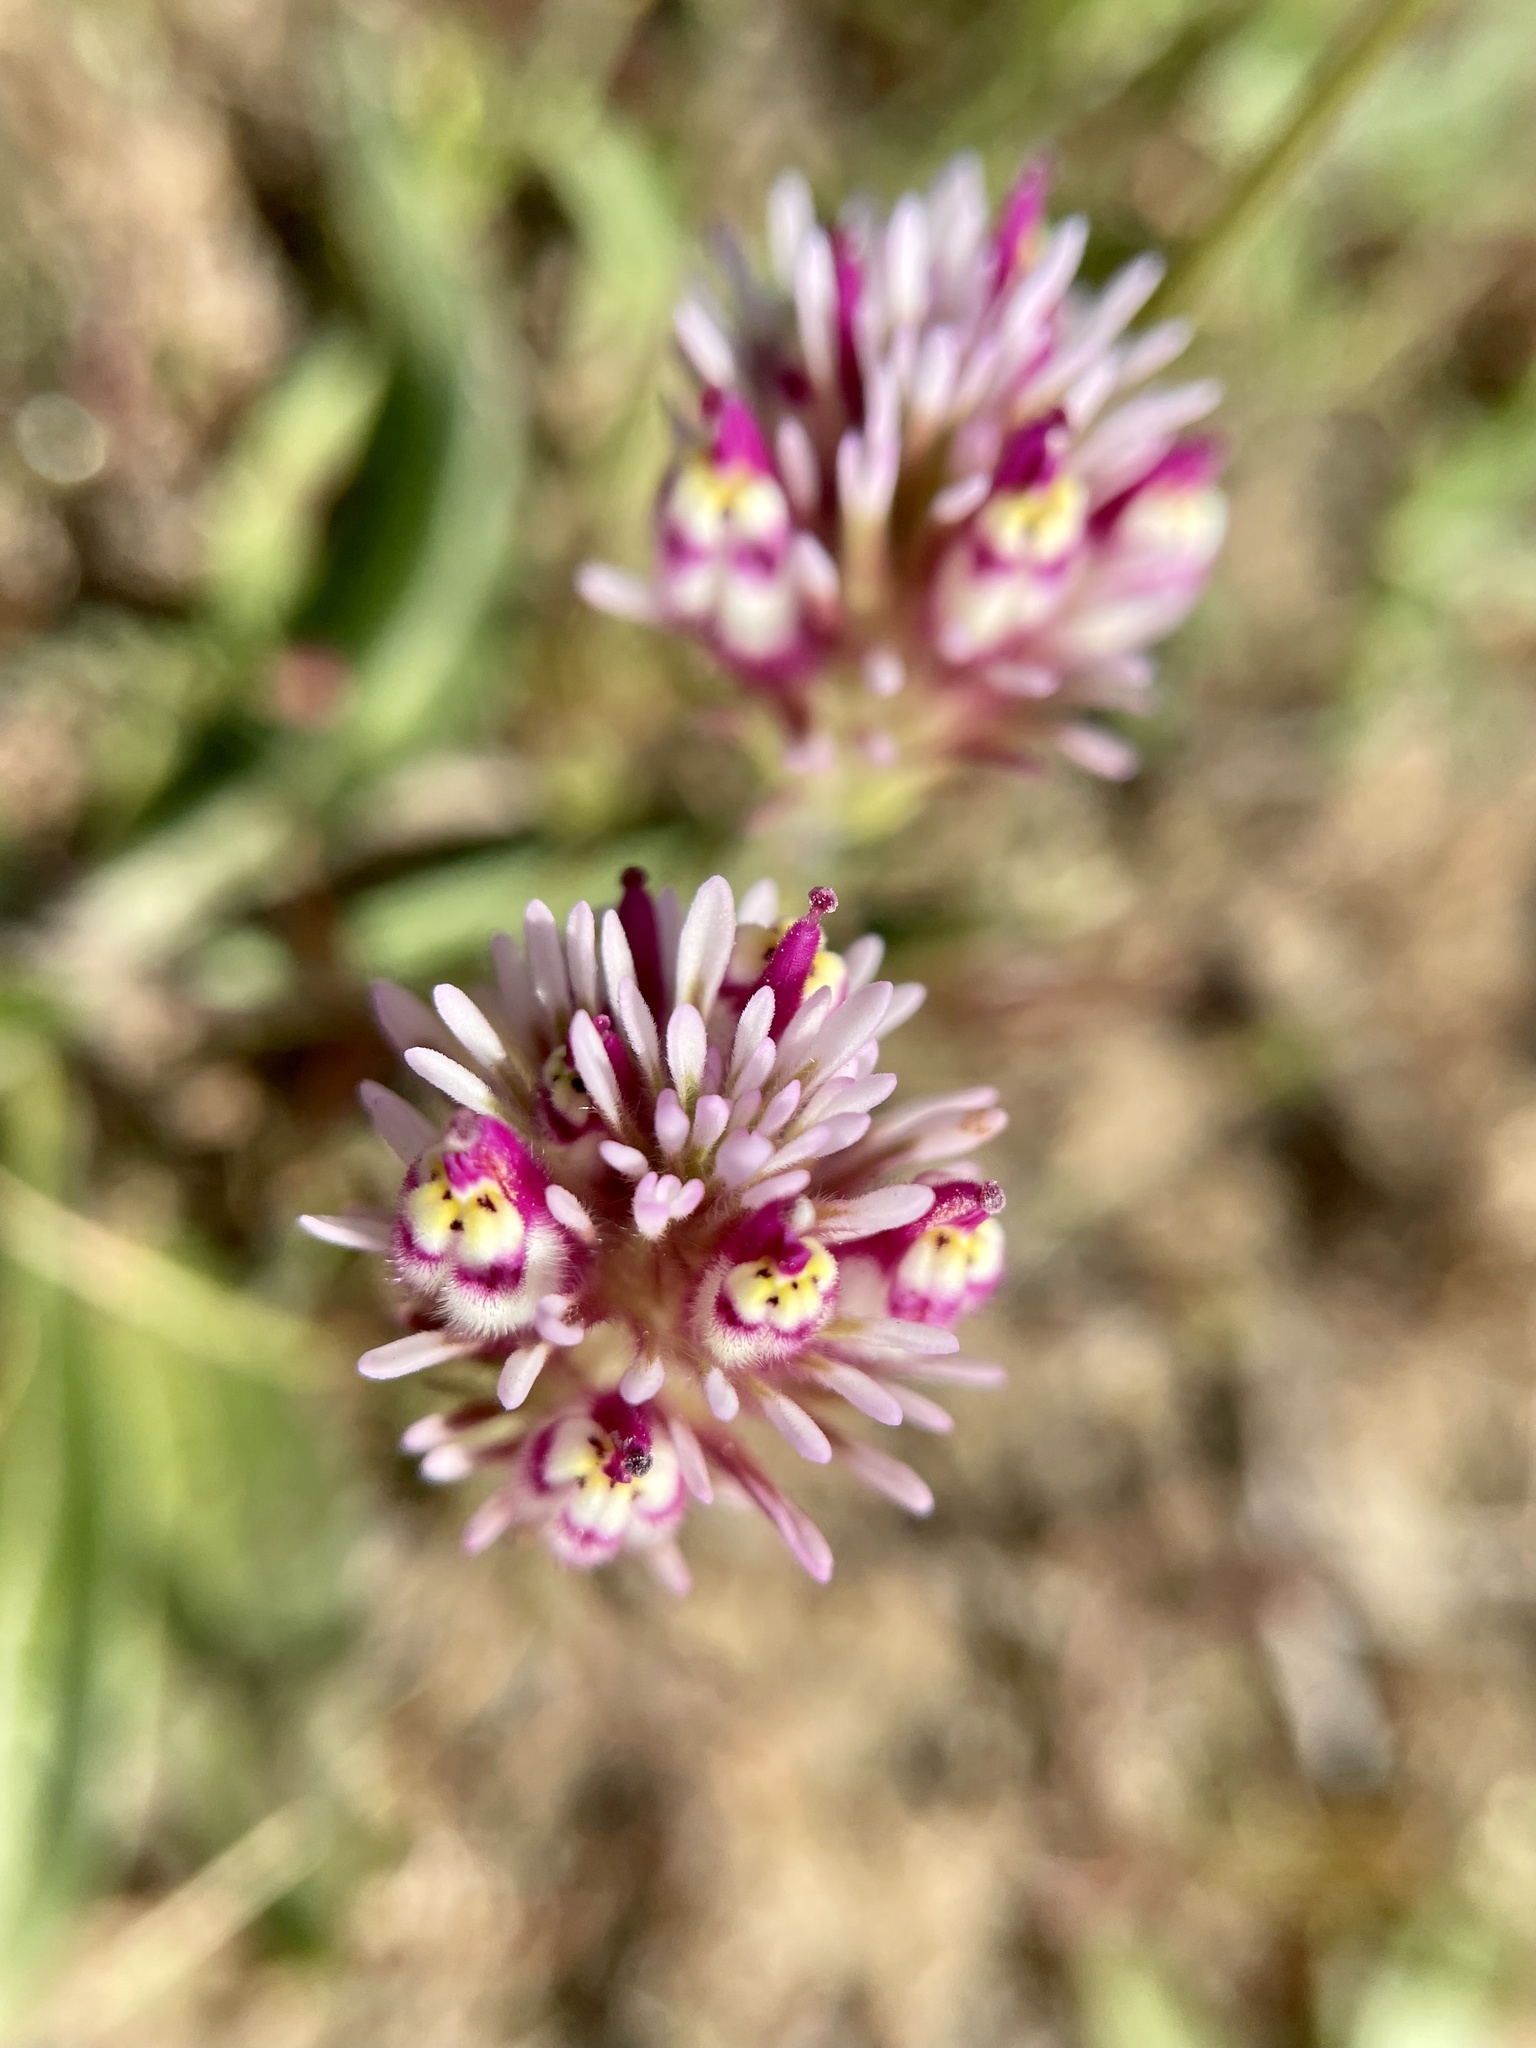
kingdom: Plantae
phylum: Tracheophyta
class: Magnoliopsida
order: Lamiales
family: Orobanchaceae
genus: Castilleja
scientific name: Castilleja densiflora
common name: Dense-flower indian paintbrush
